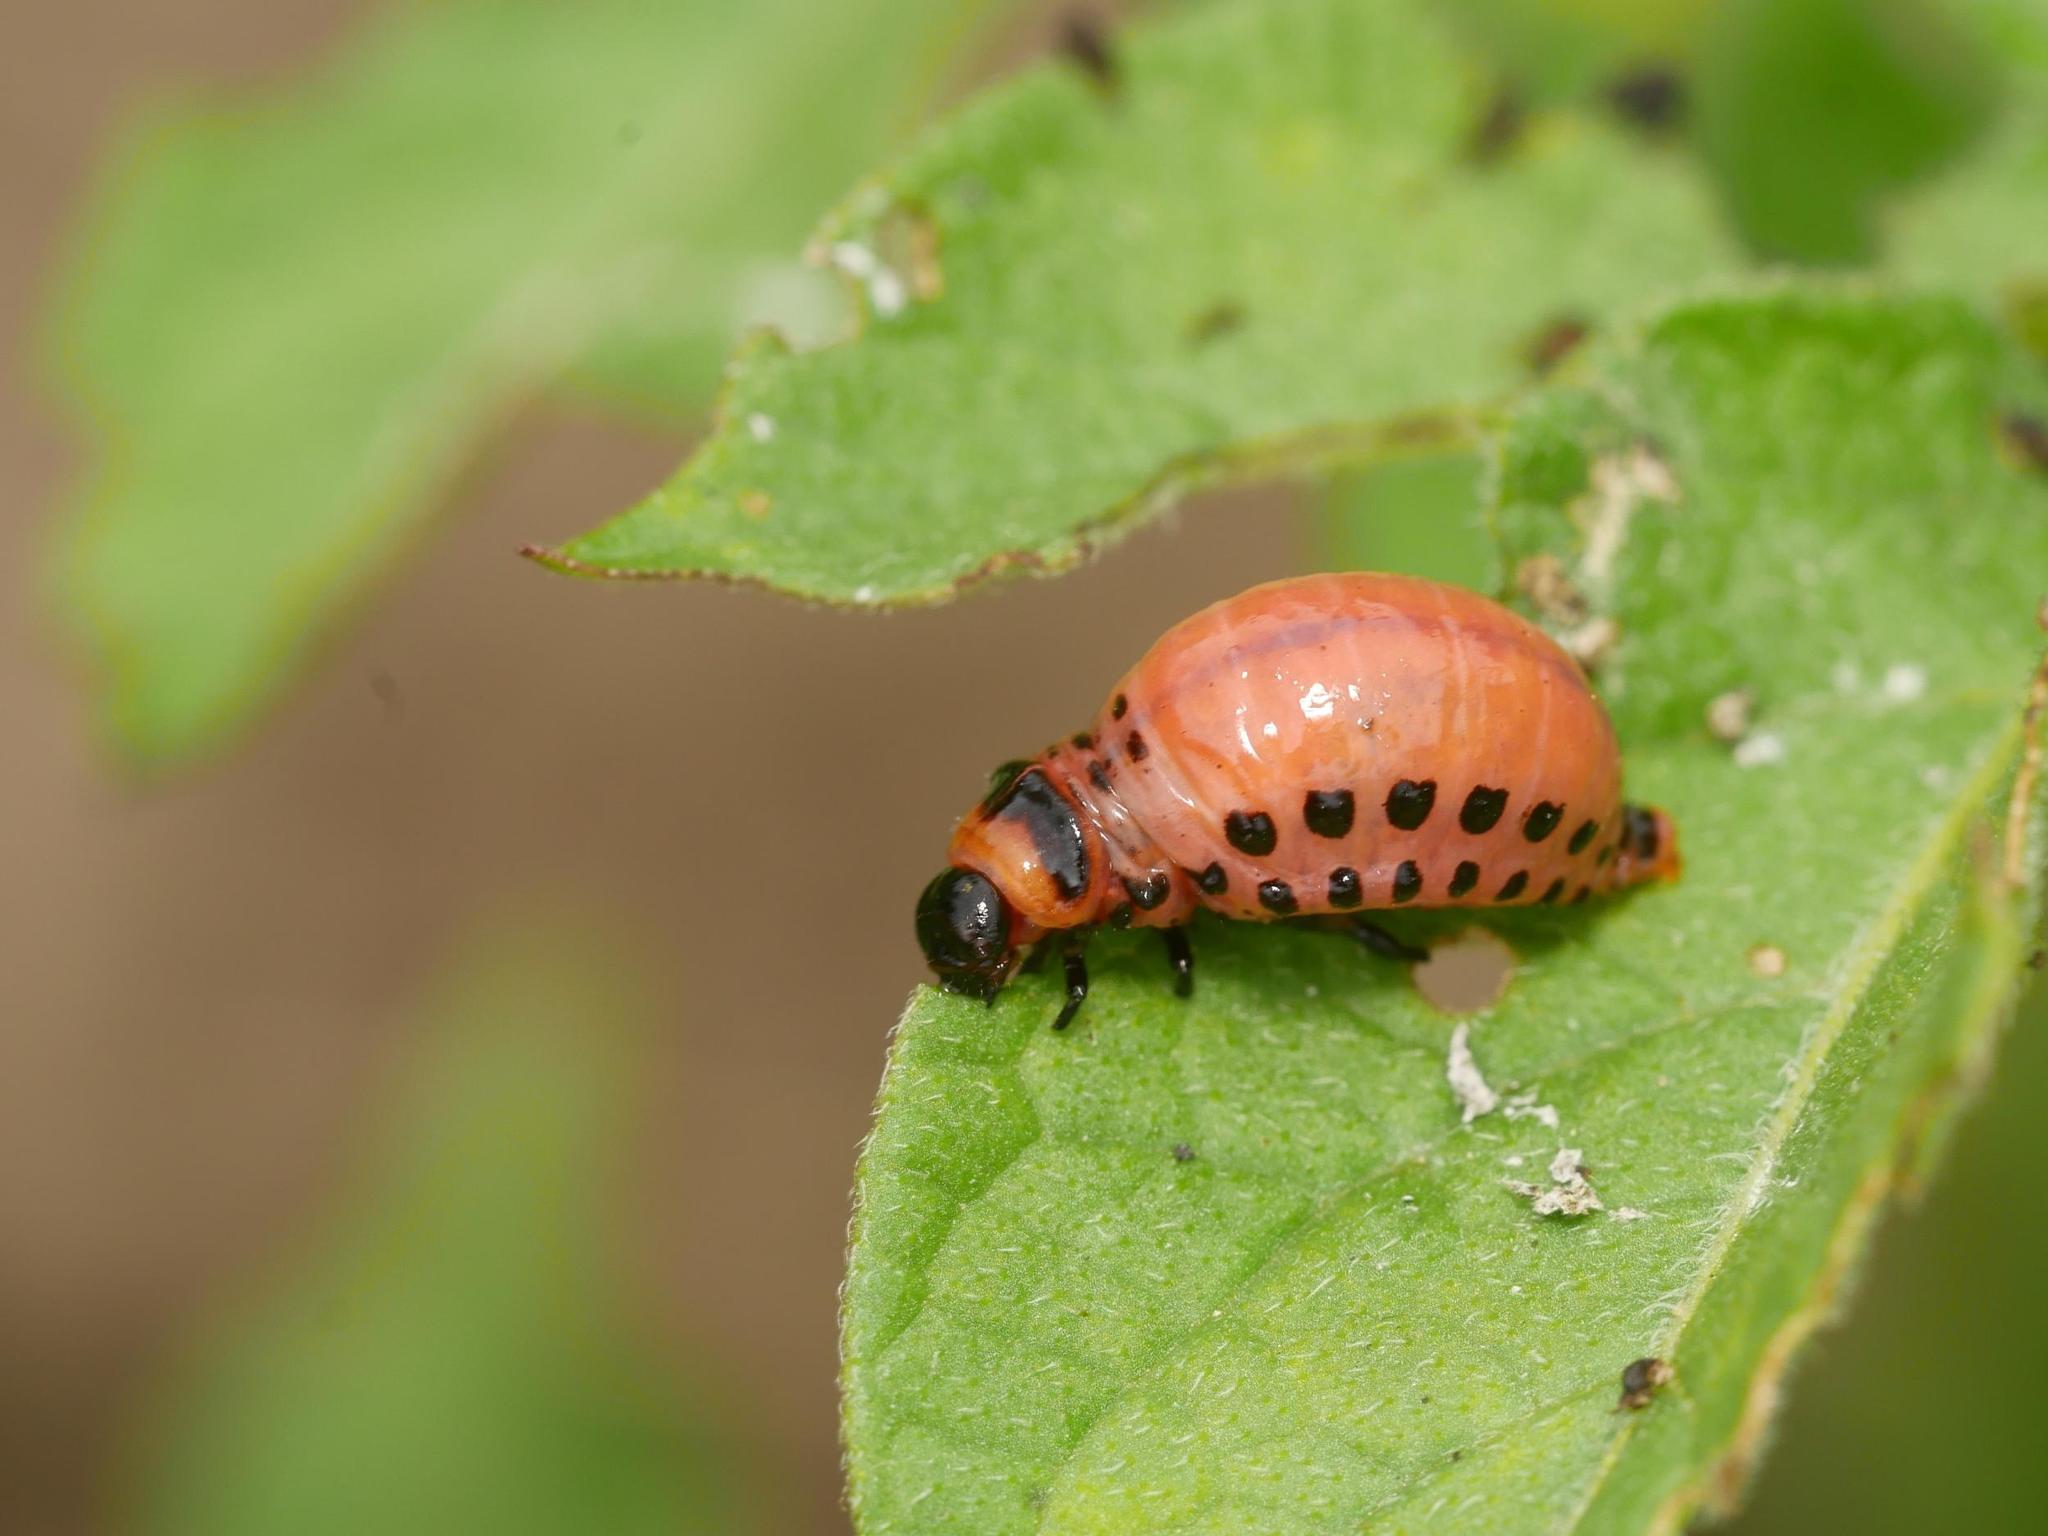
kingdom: Animalia
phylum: Arthropoda
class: Insecta
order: Coleoptera
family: Chrysomelidae
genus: Leptinotarsa
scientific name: Leptinotarsa decemlineata
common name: Colorado potato beetle
